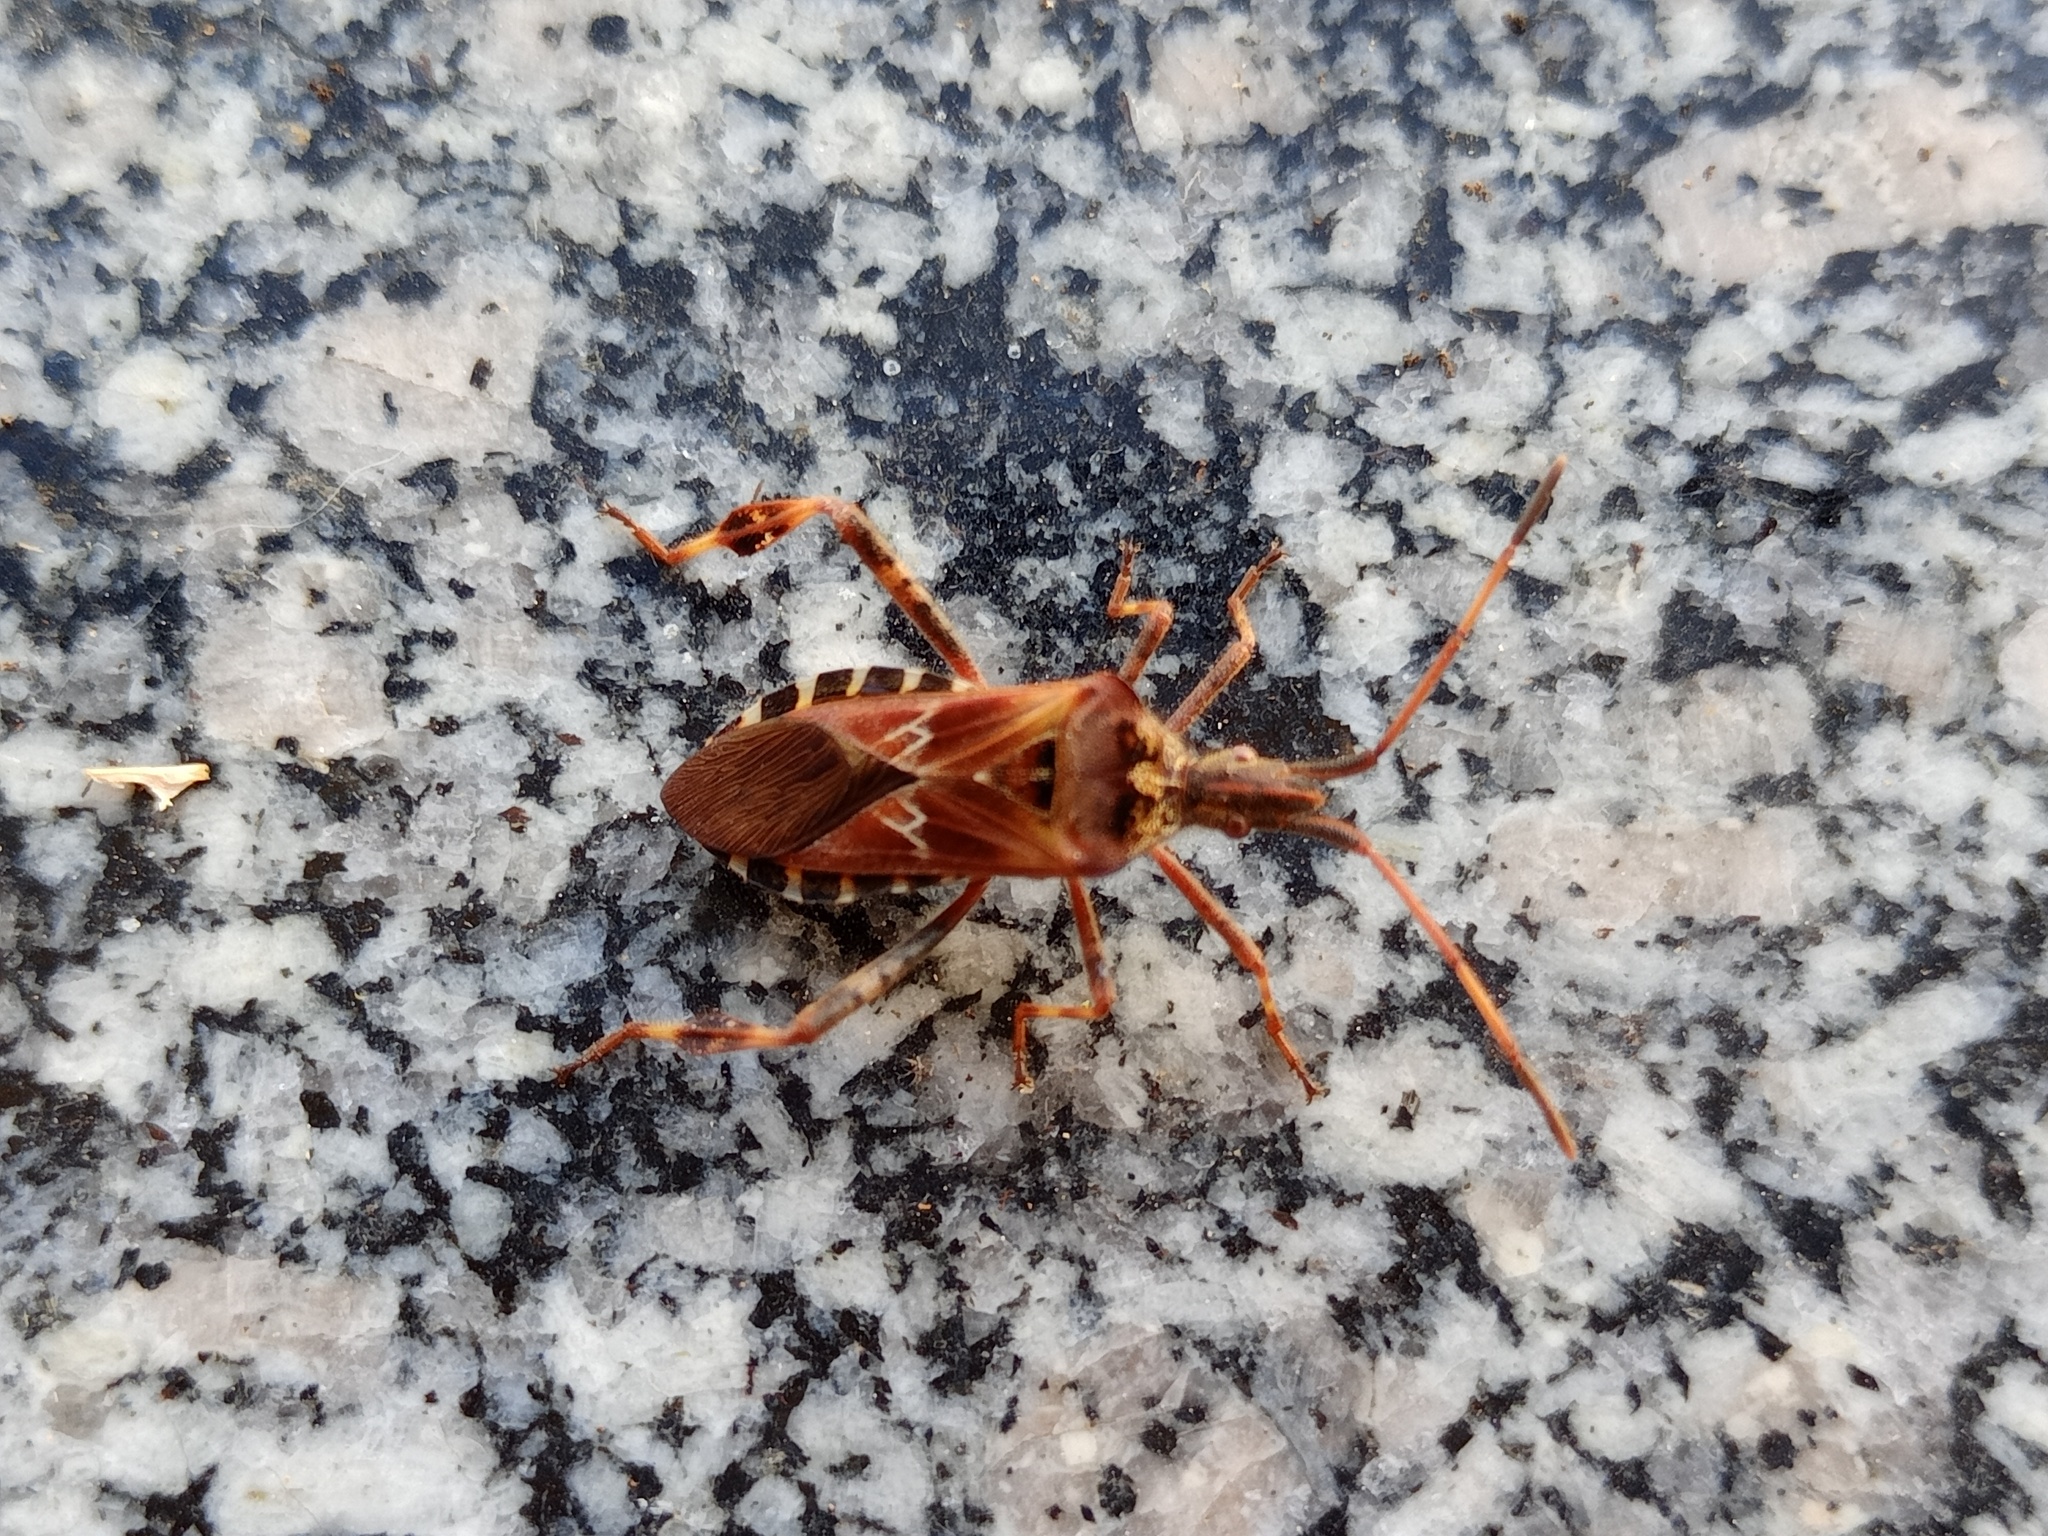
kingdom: Animalia
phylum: Arthropoda
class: Insecta
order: Hemiptera
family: Coreidae
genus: Leptoglossus
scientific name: Leptoglossus occidentalis
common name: Western conifer-seed bug
